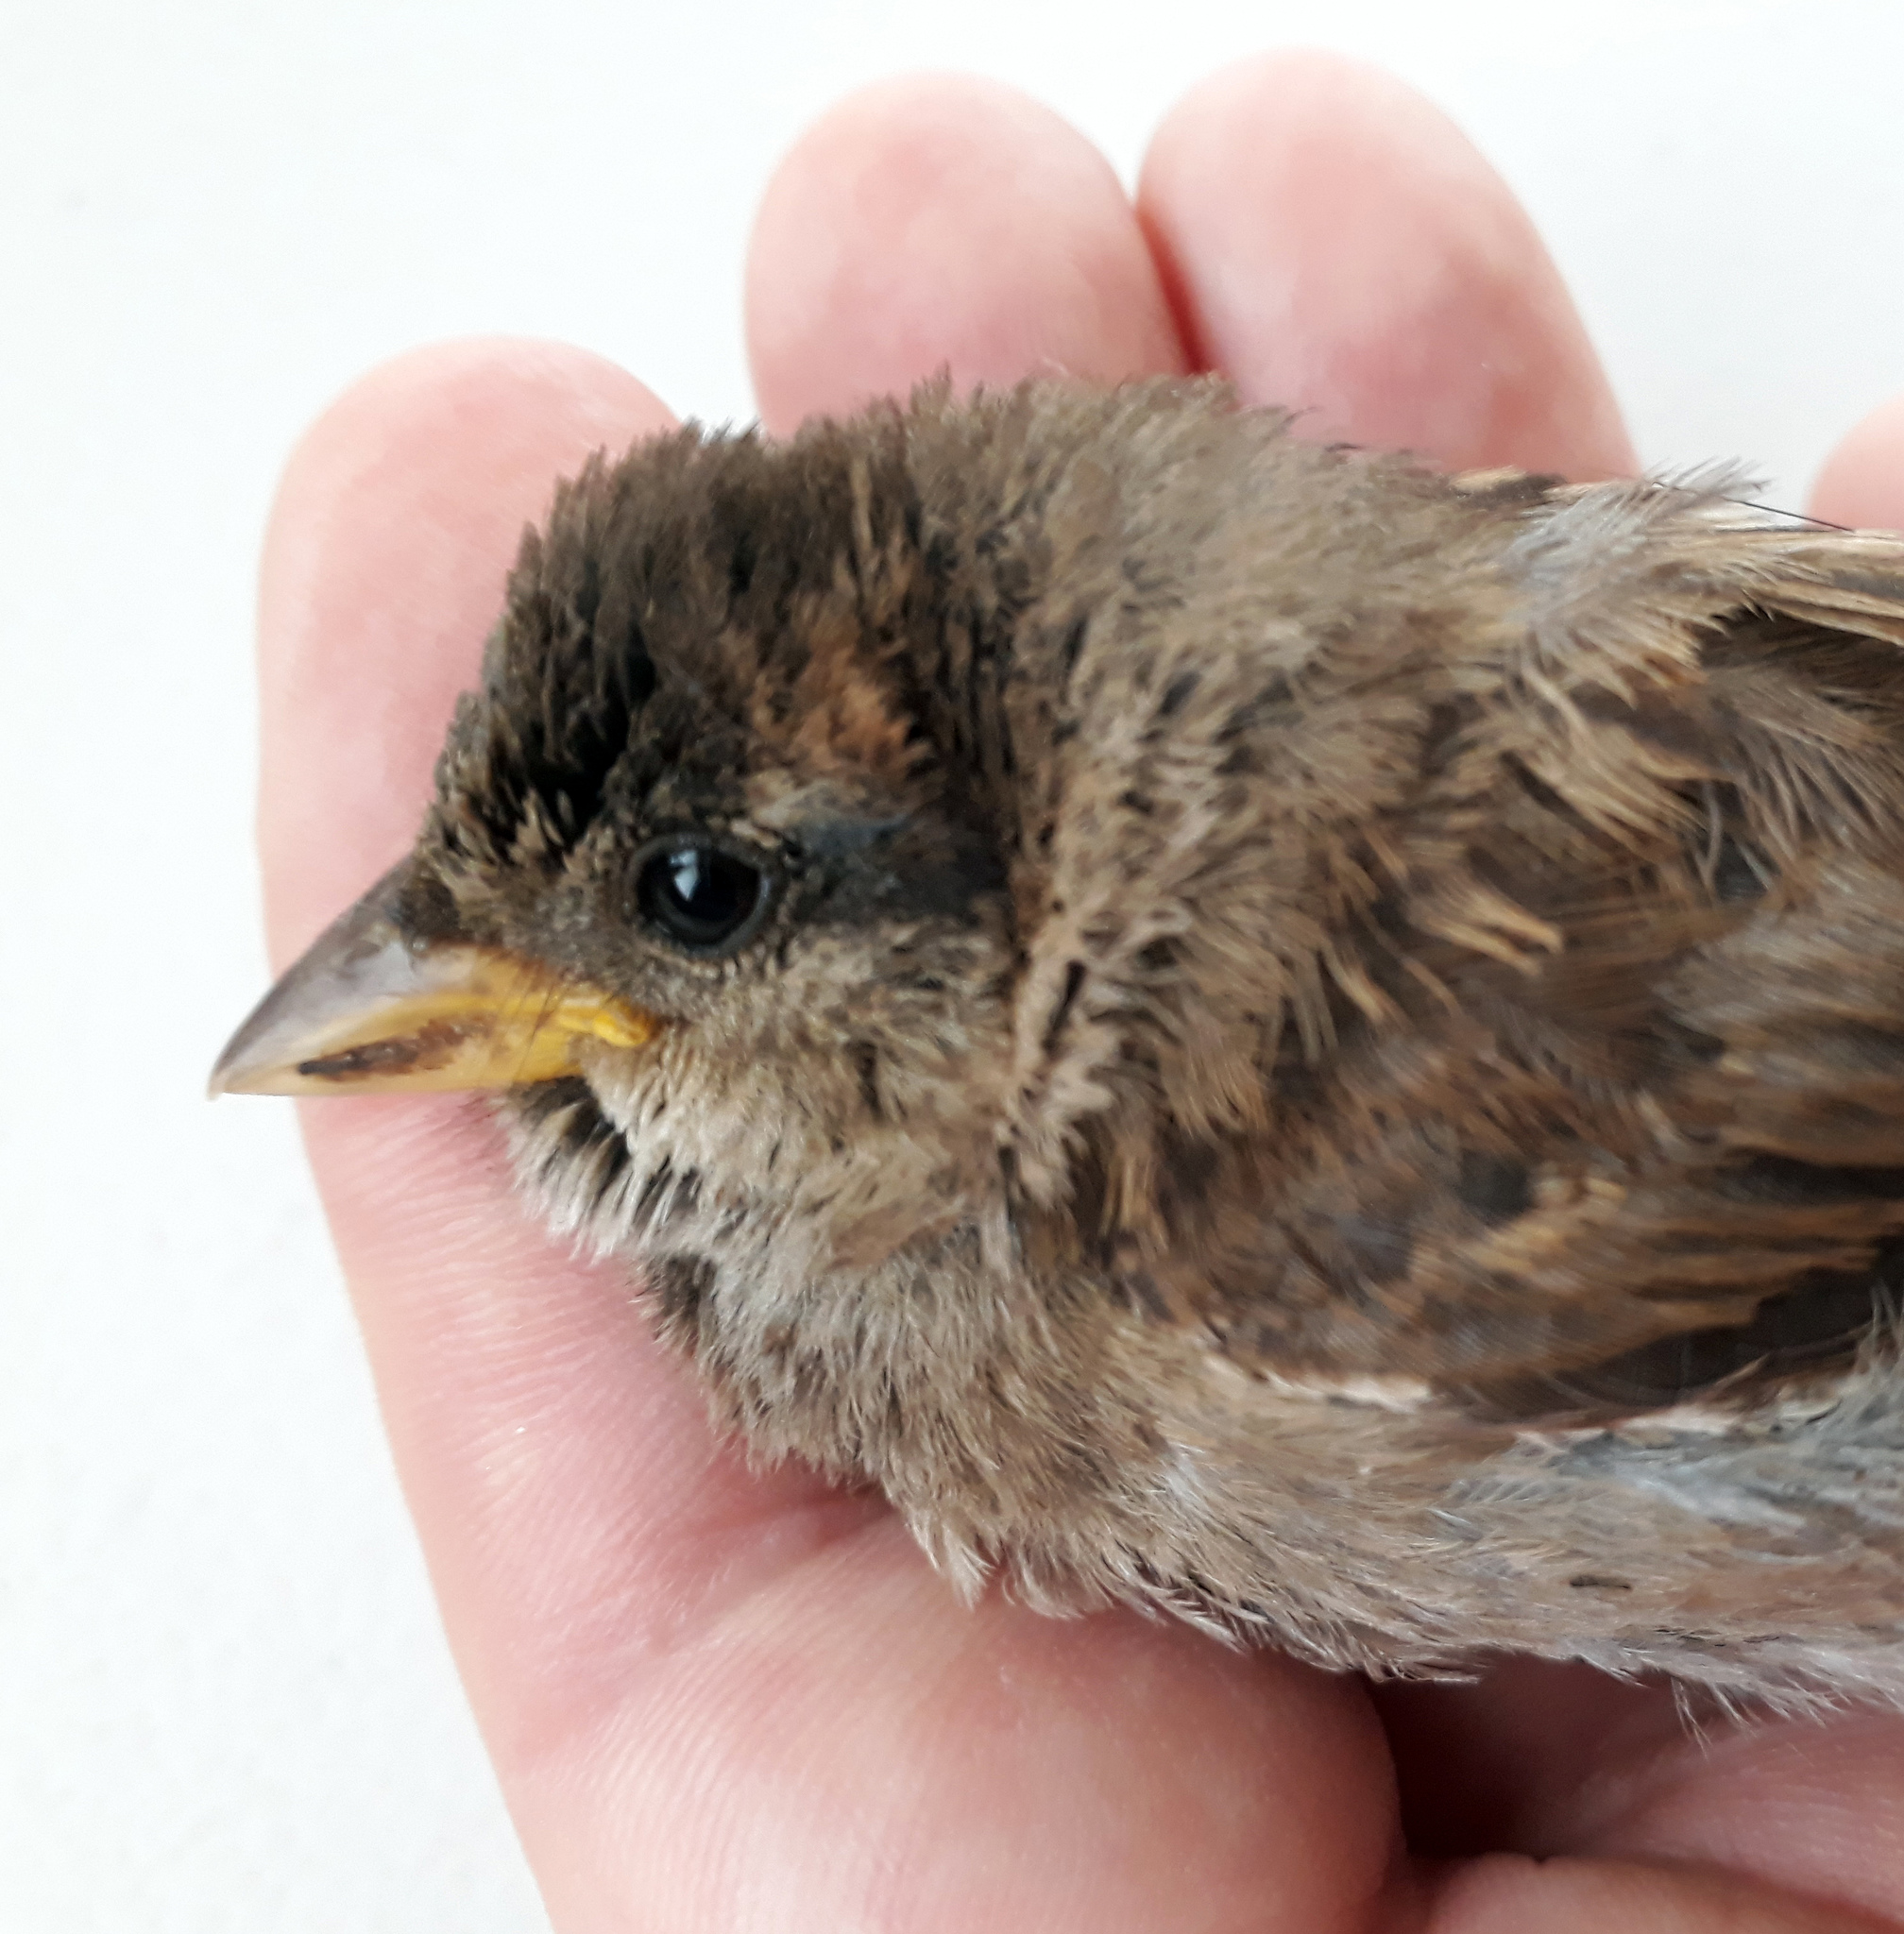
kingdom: Animalia
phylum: Chordata
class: Aves
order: Passeriformes
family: Passeridae
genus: Passer
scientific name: Passer domesticus
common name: House sparrow
